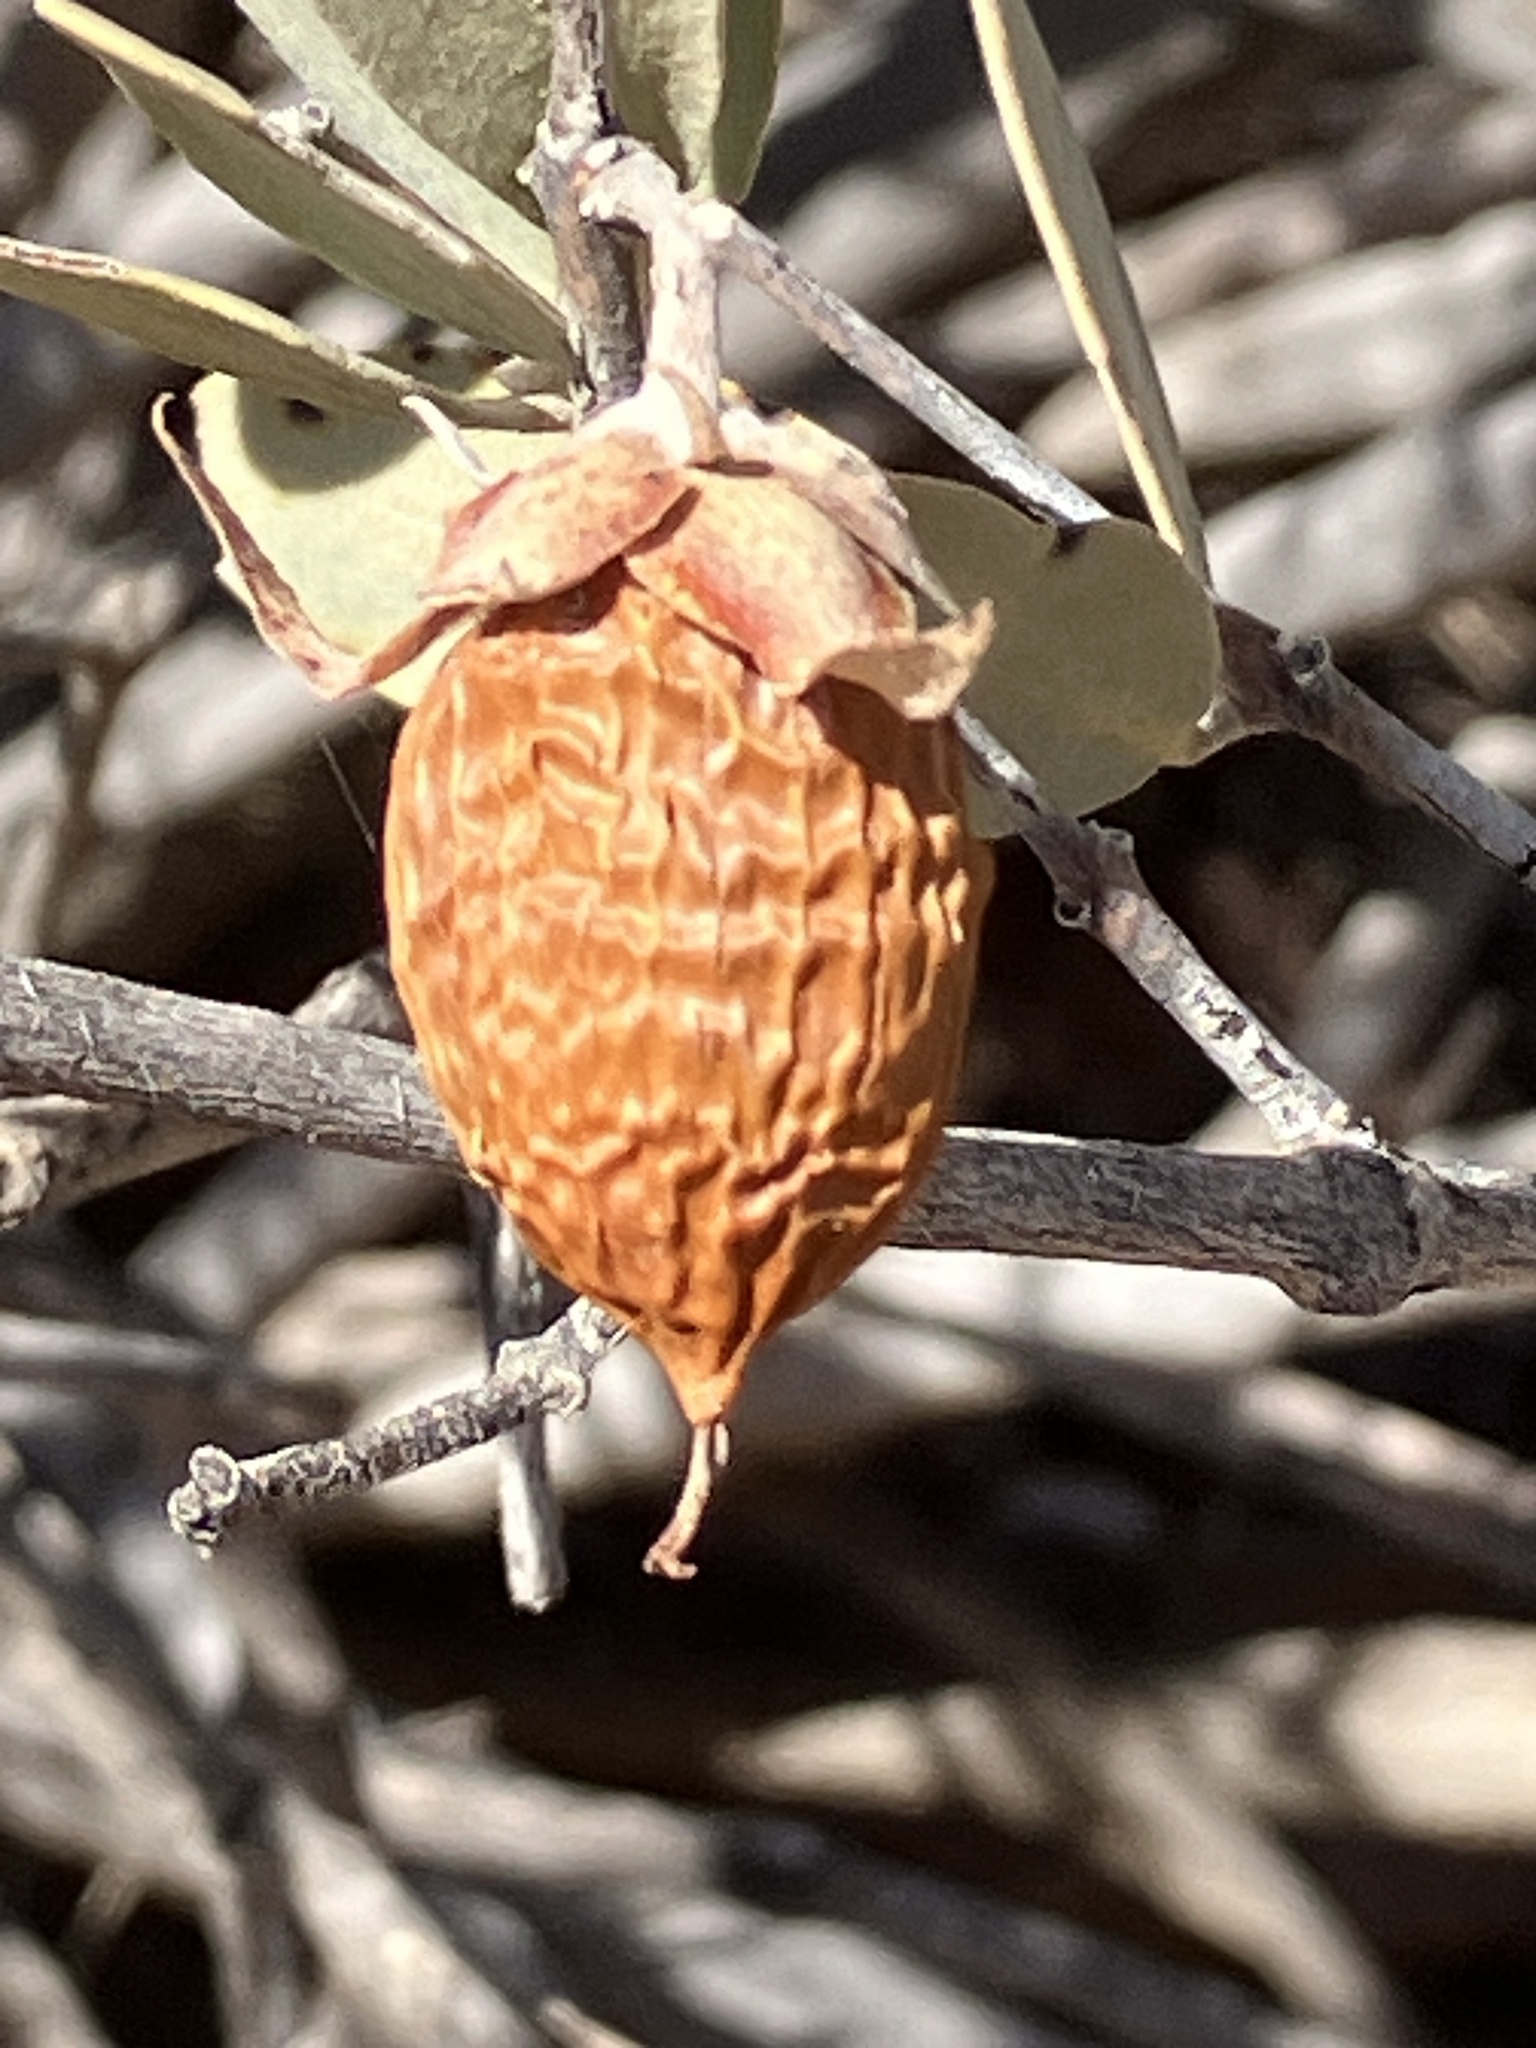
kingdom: Plantae
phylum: Tracheophyta
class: Magnoliopsida
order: Caryophyllales
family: Simmondsiaceae
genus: Simmondsia
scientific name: Simmondsia chinensis
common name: Jojoba
